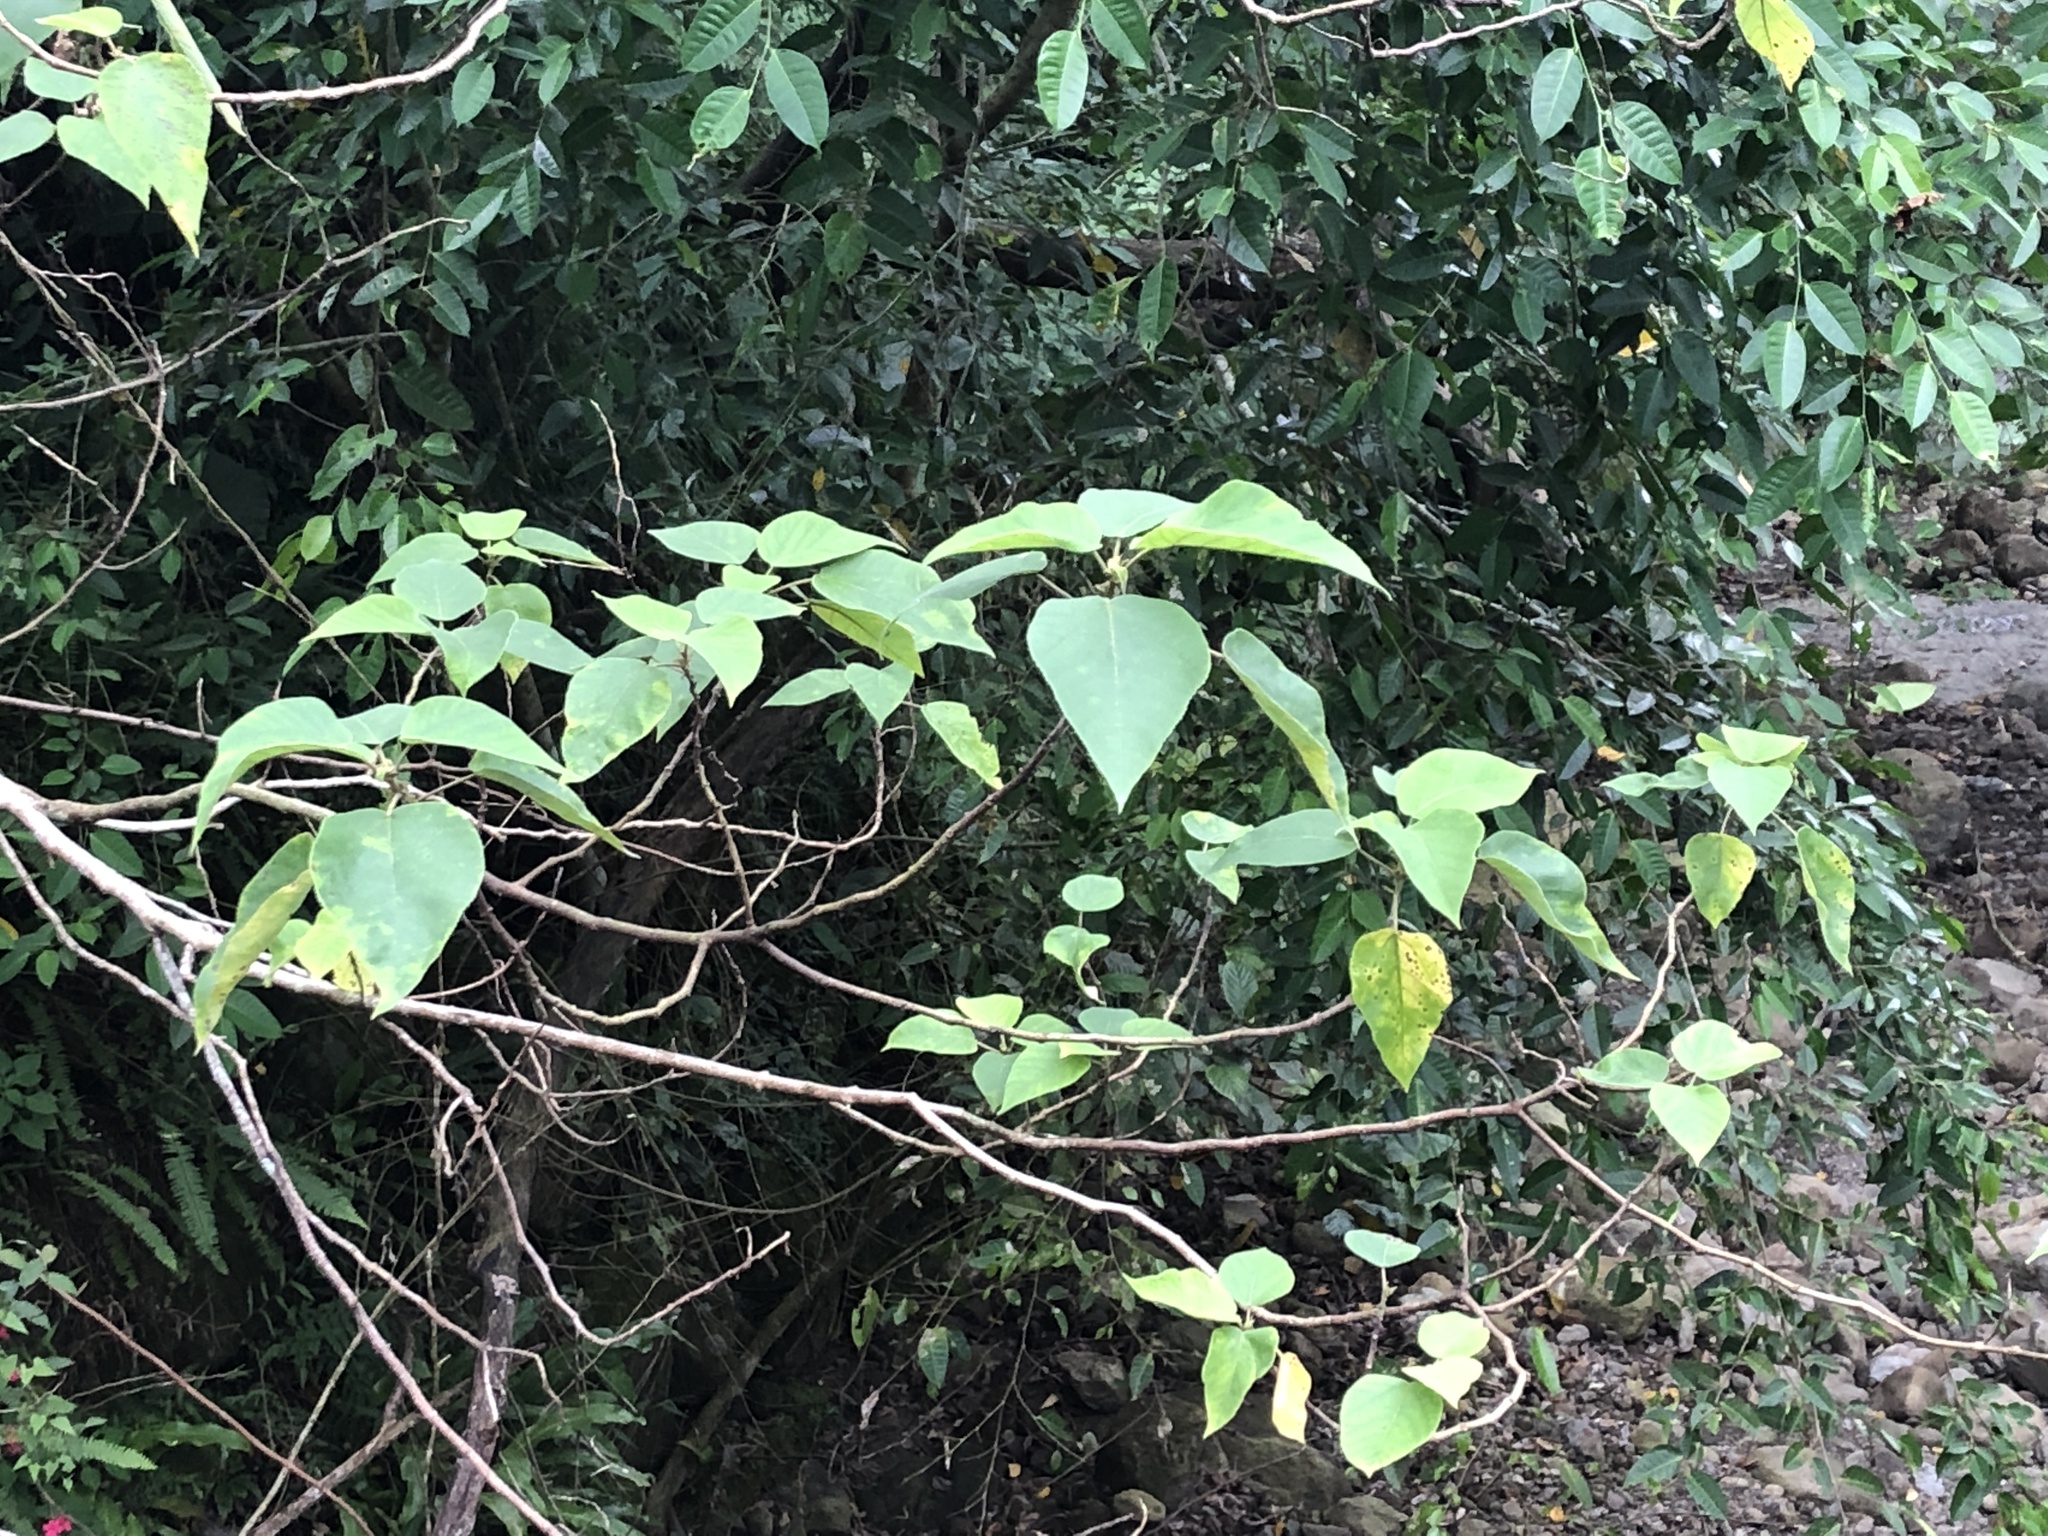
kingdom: Plantae
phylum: Tracheophyta
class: Magnoliopsida
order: Rosales
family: Moraceae
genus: Broussonetia
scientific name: Broussonetia papyrifera
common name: Paper mulberry
